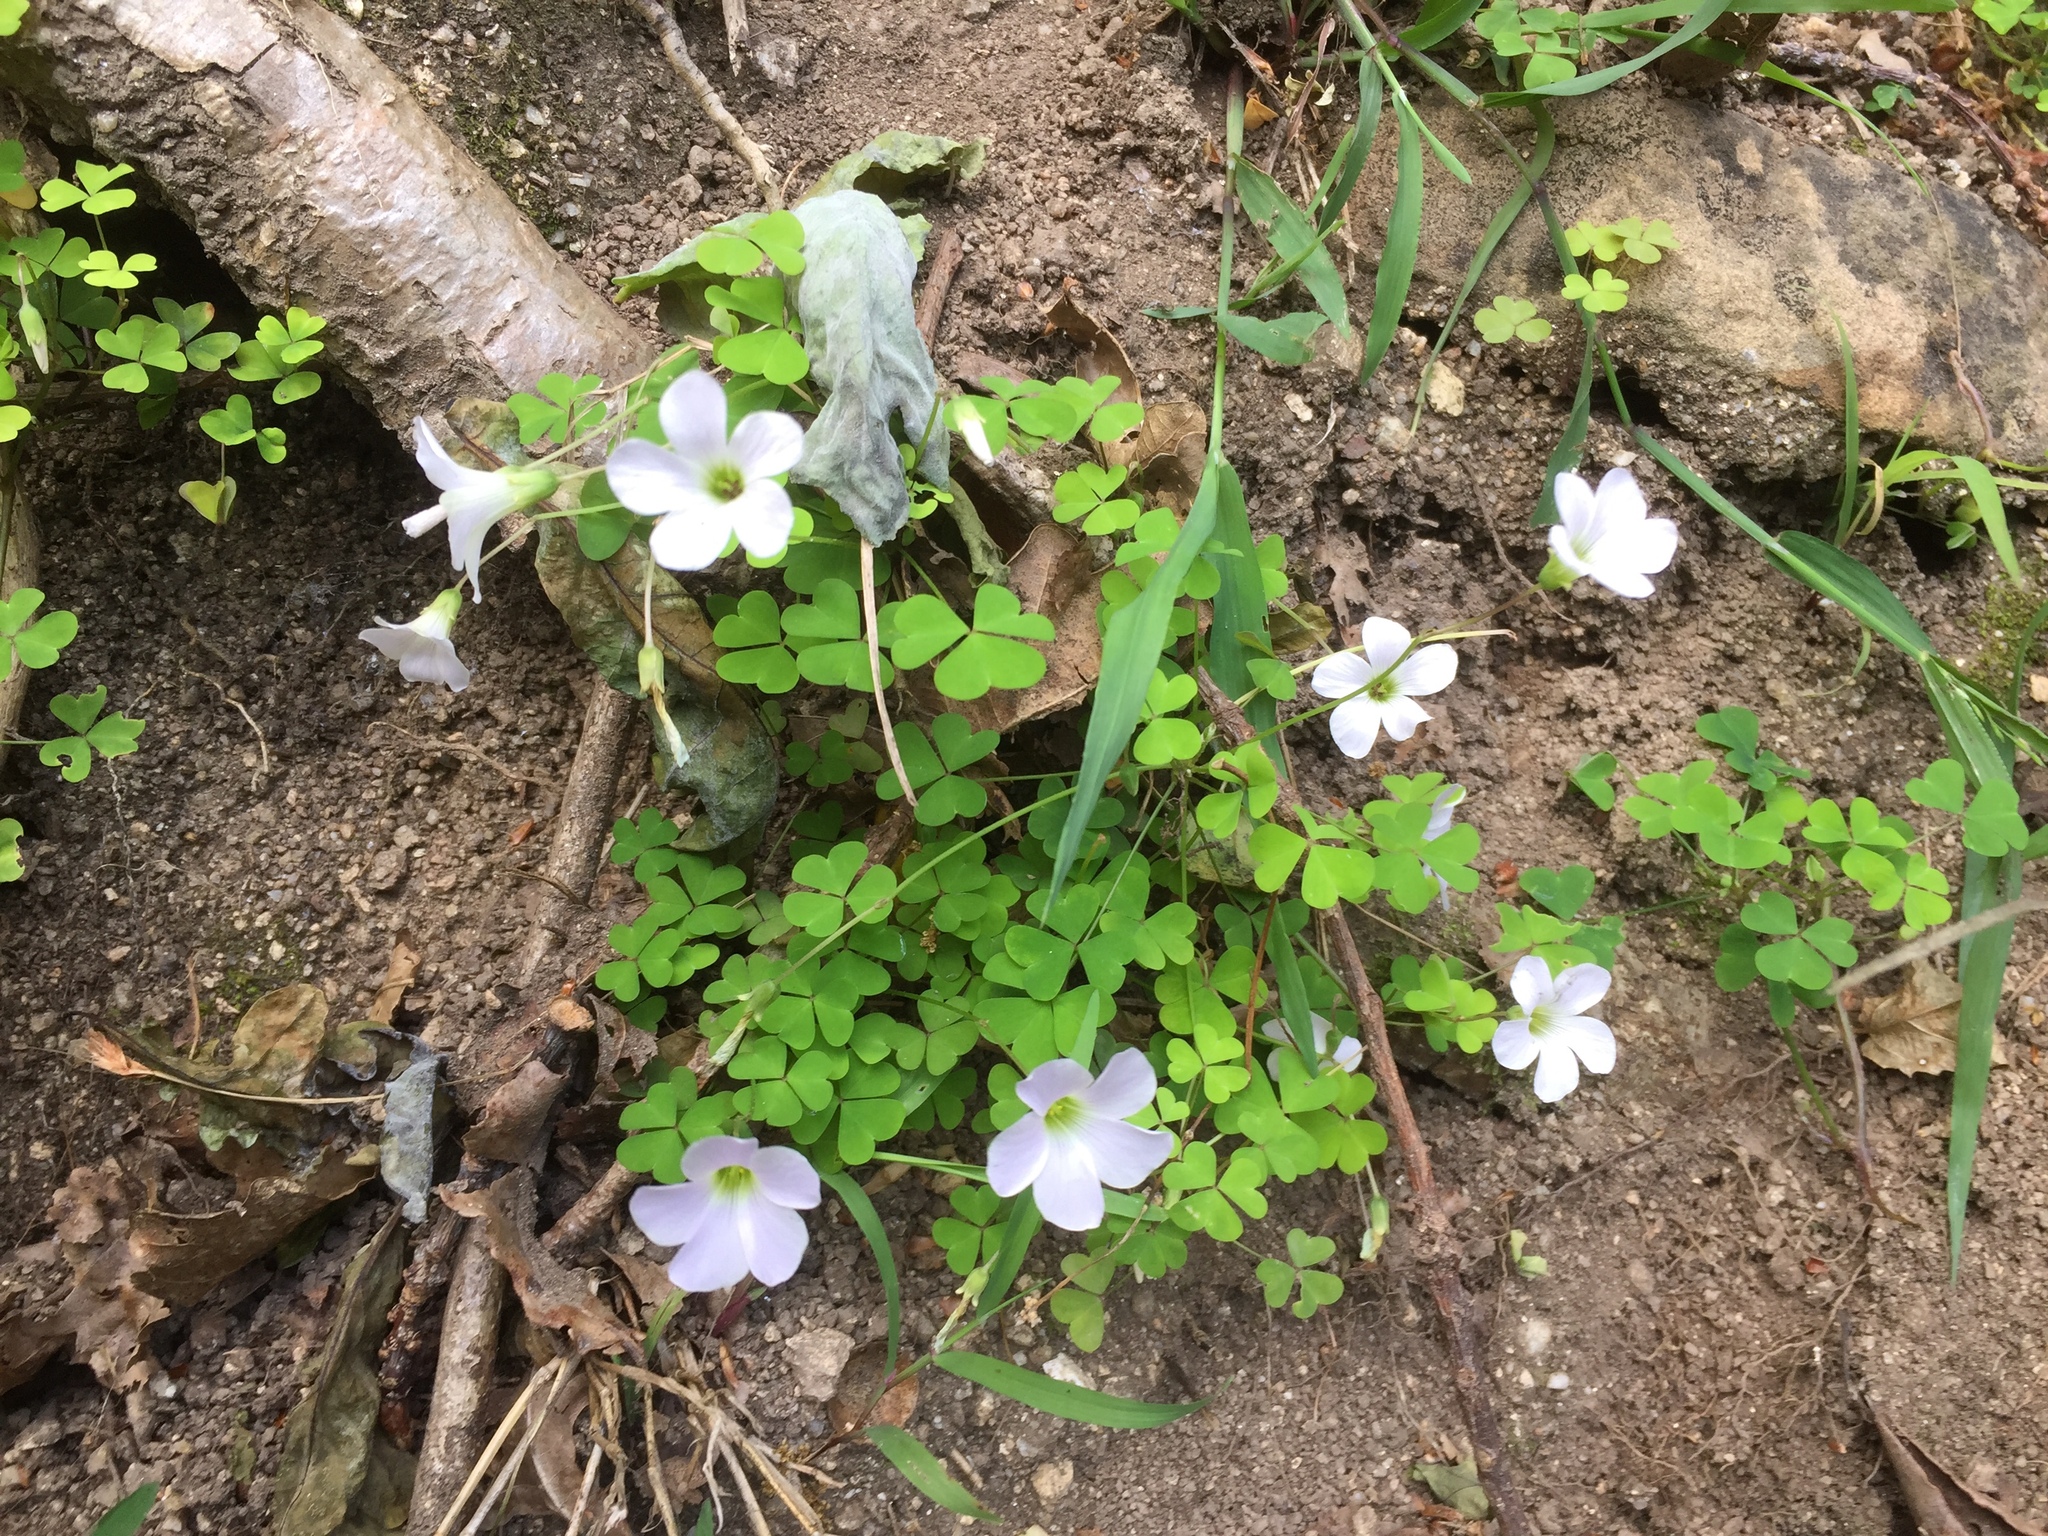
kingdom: Fungi
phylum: Basidiomycota
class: Ustilaginomycetes
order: Urocystidales
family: Glomosporiaceae
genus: Thecaphora
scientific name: Thecaphora capensis
